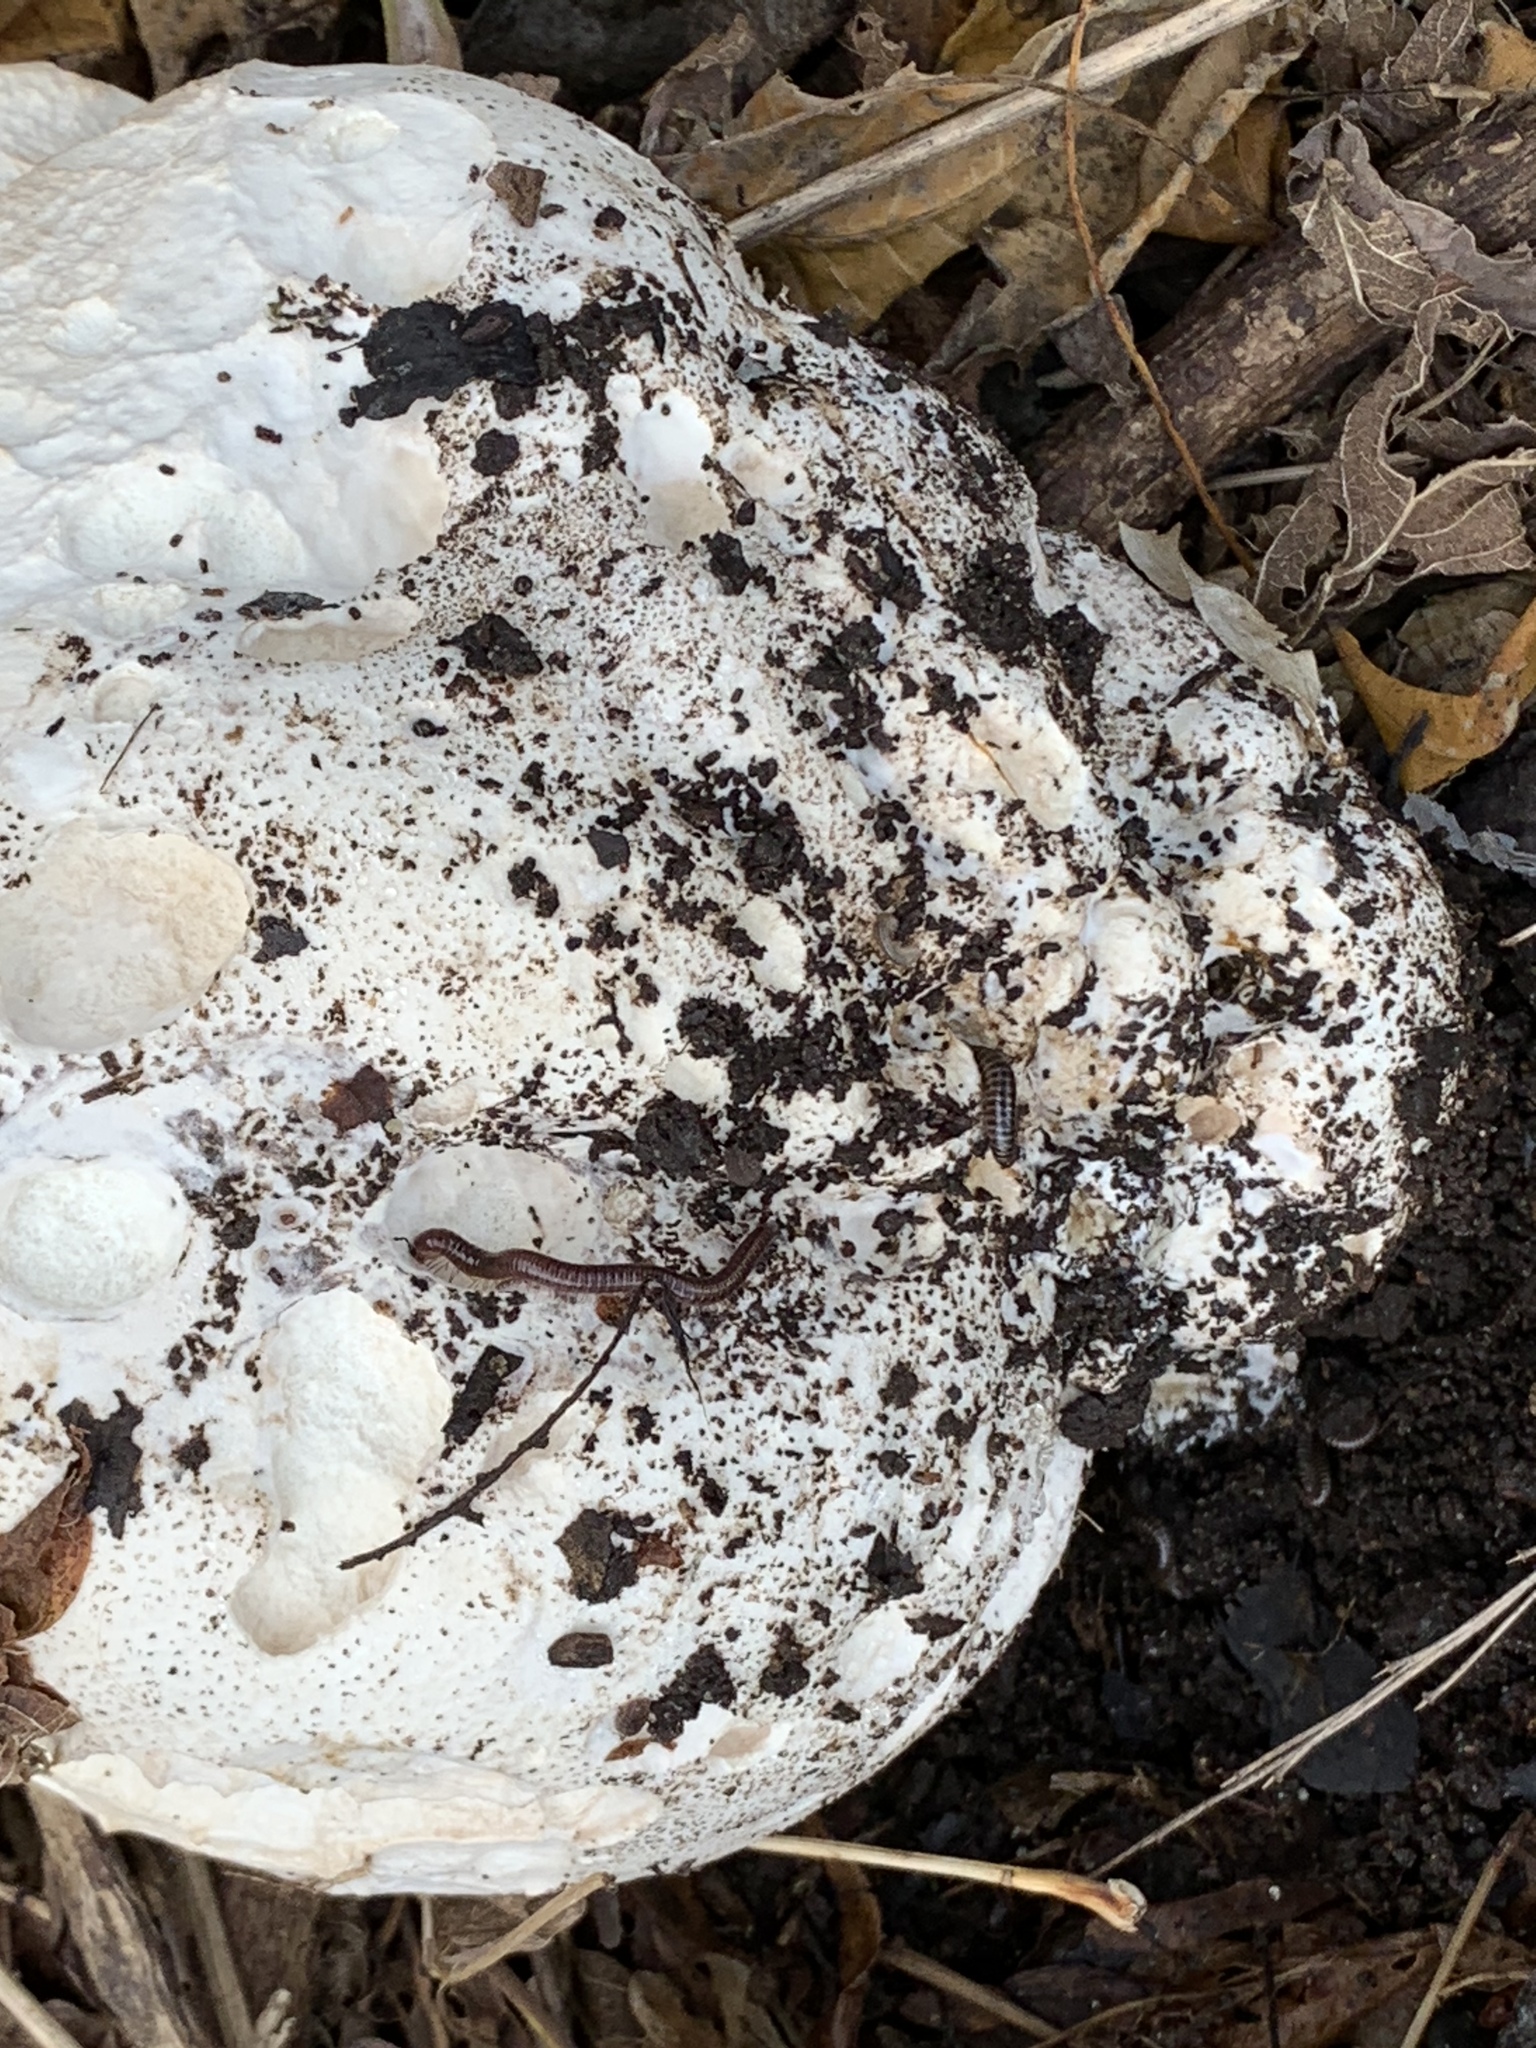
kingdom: Fungi
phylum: Basidiomycota
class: Agaricomycetes
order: Agaricales
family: Lycoperdaceae
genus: Calvatia
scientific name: Calvatia gigantea
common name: Giant puffball
